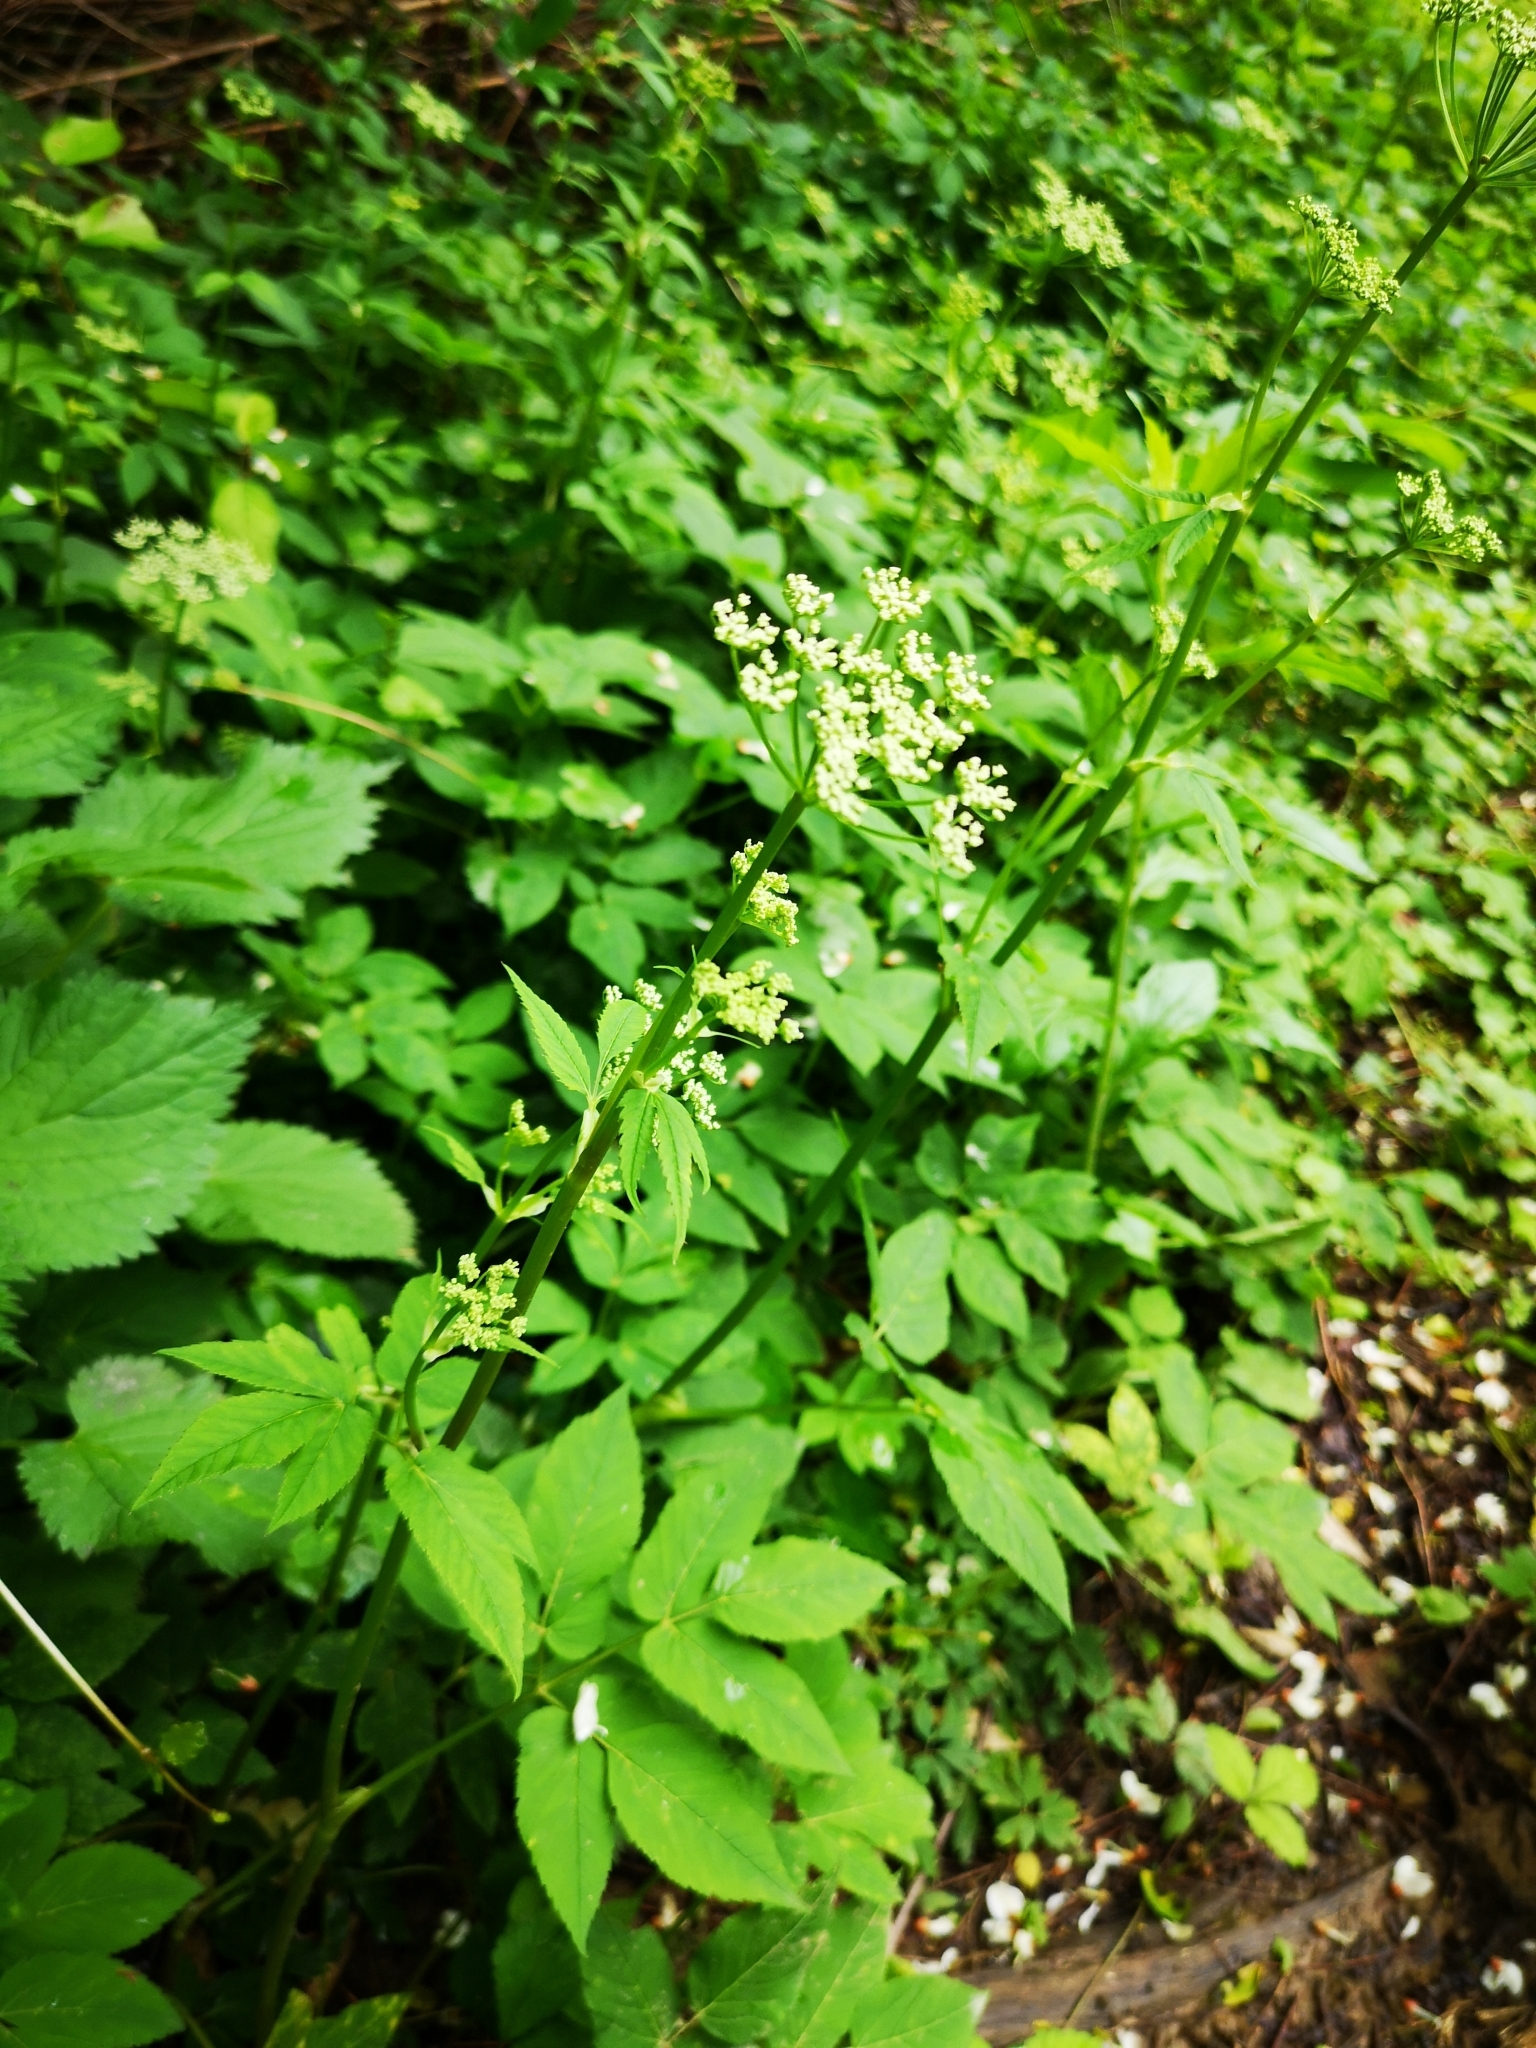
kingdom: Plantae
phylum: Tracheophyta
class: Magnoliopsida
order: Apiales
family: Apiaceae
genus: Aegopodium
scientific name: Aegopodium podagraria
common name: Ground-elder
